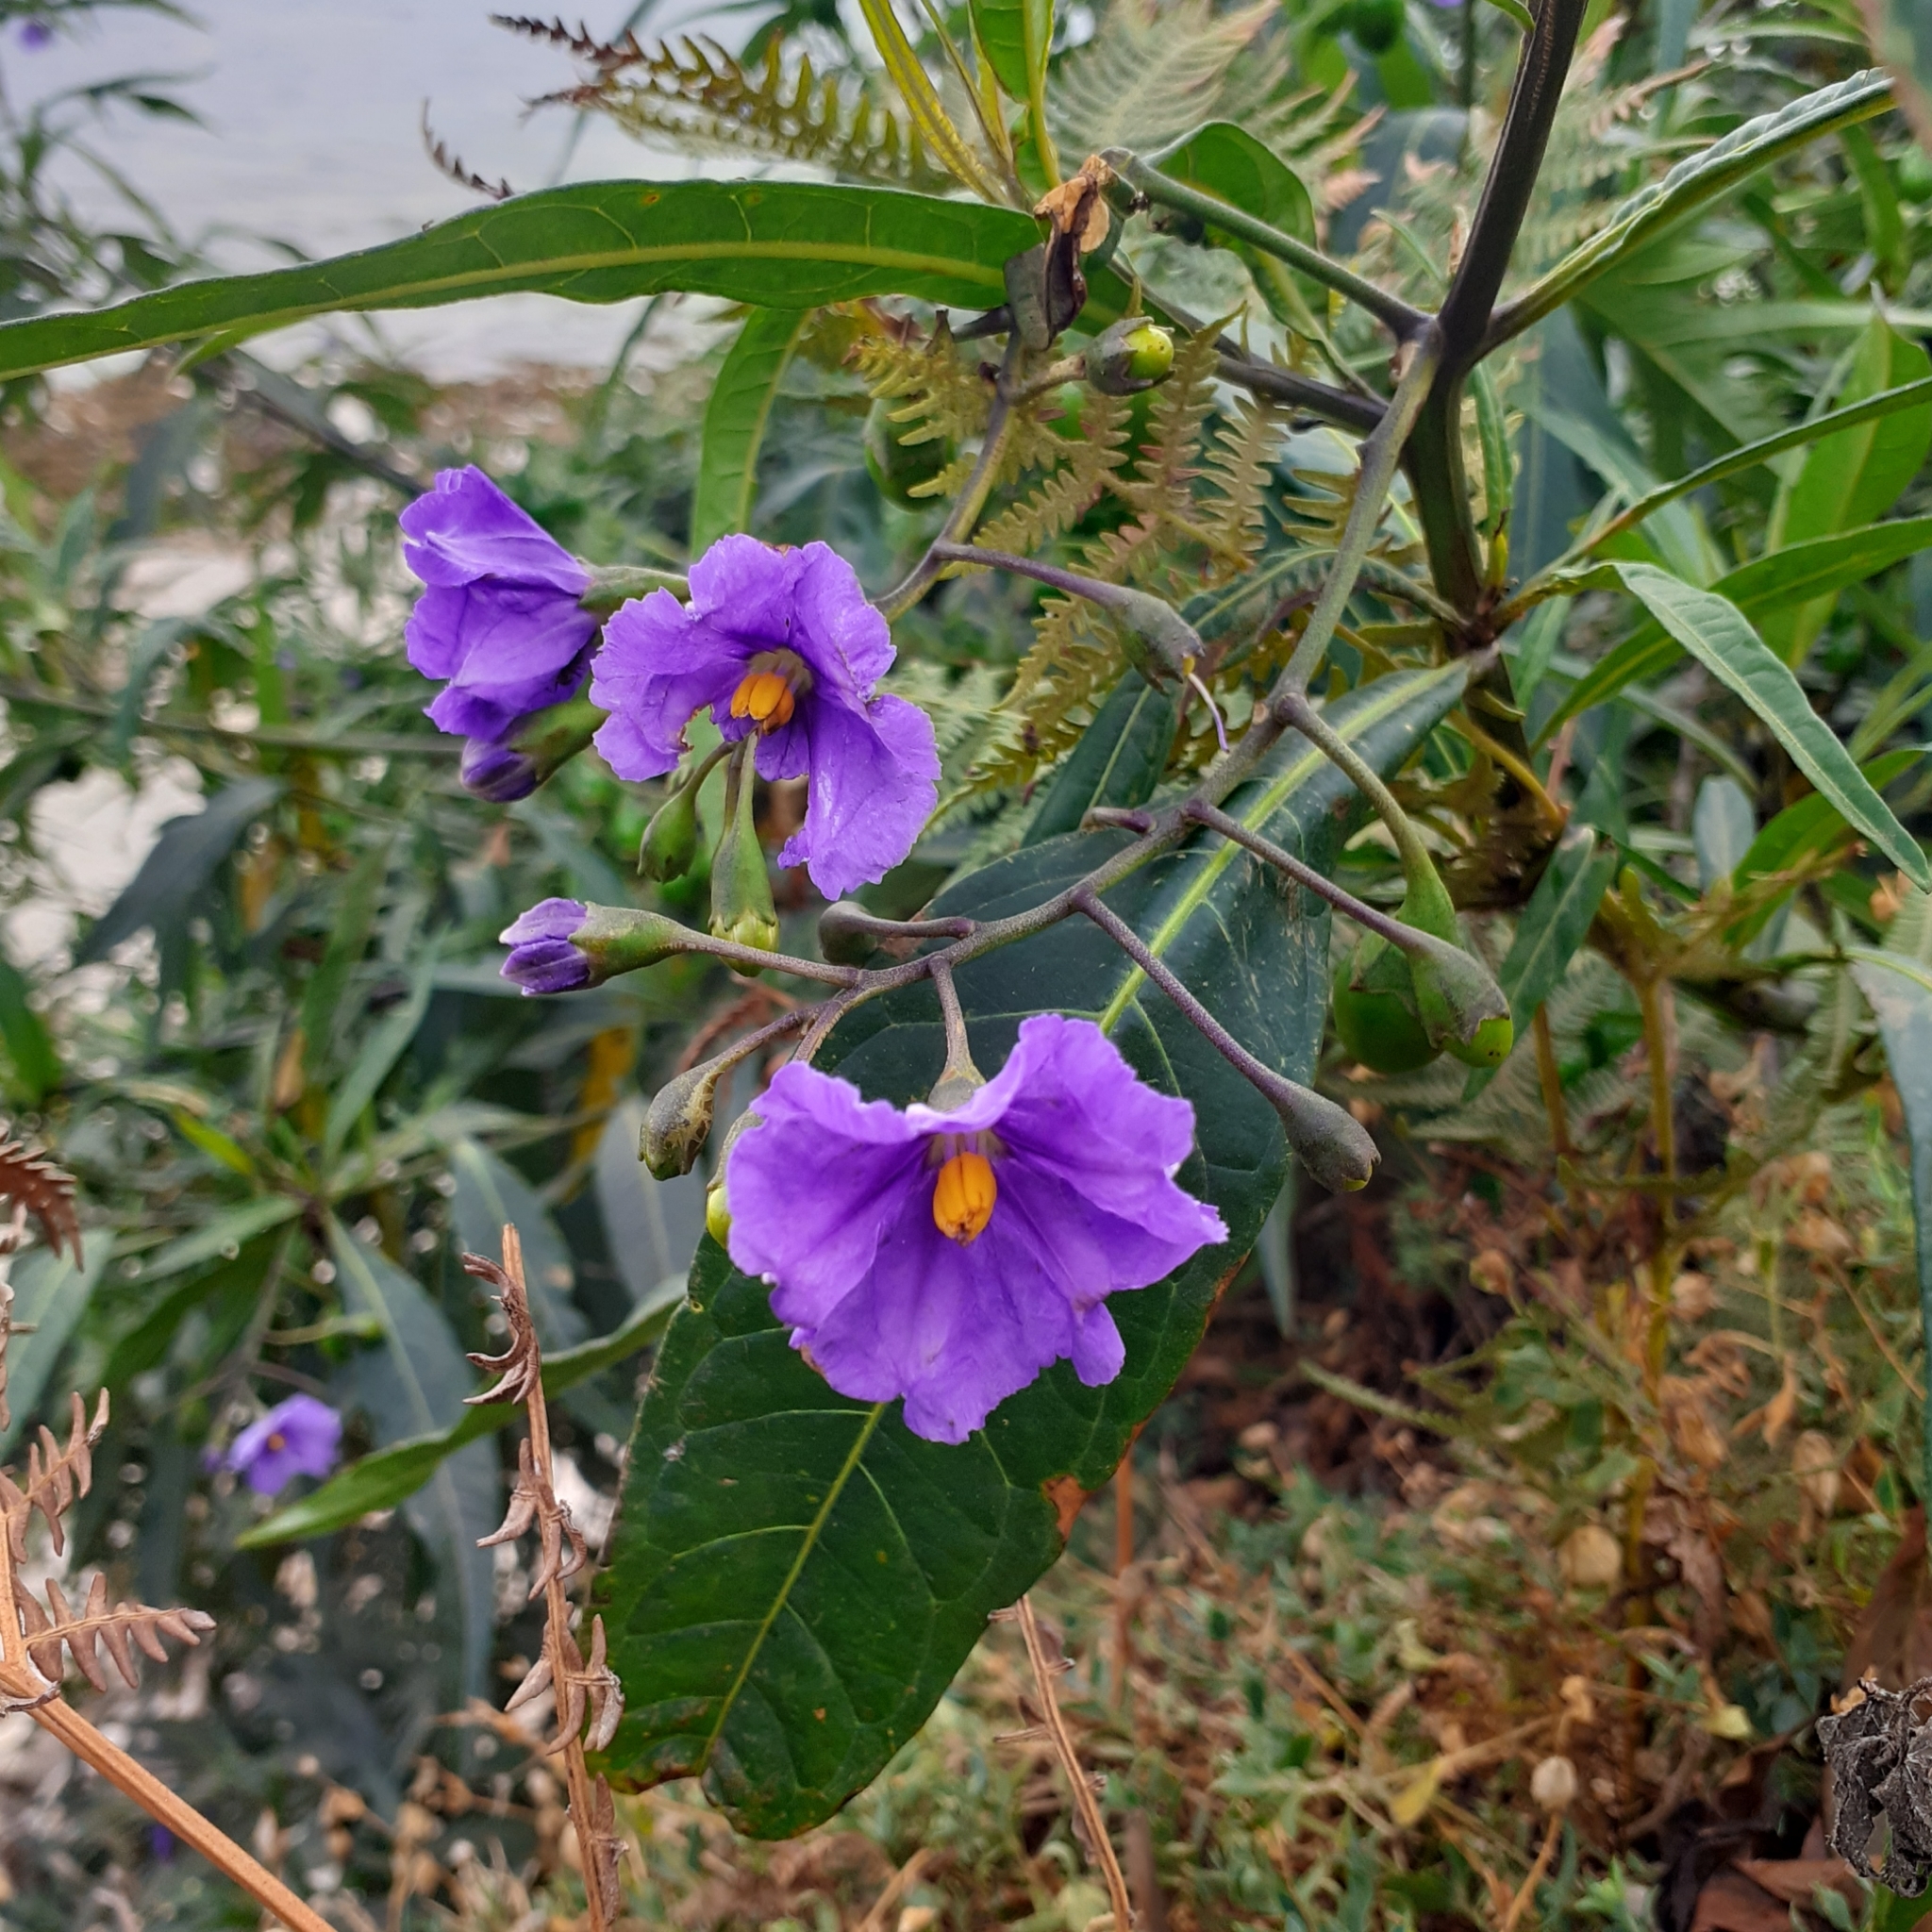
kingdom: Plantae
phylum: Tracheophyta
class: Magnoliopsida
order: Solanales
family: Solanaceae
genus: Solanum
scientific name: Solanum laciniatum
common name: Kangaroo-apple
